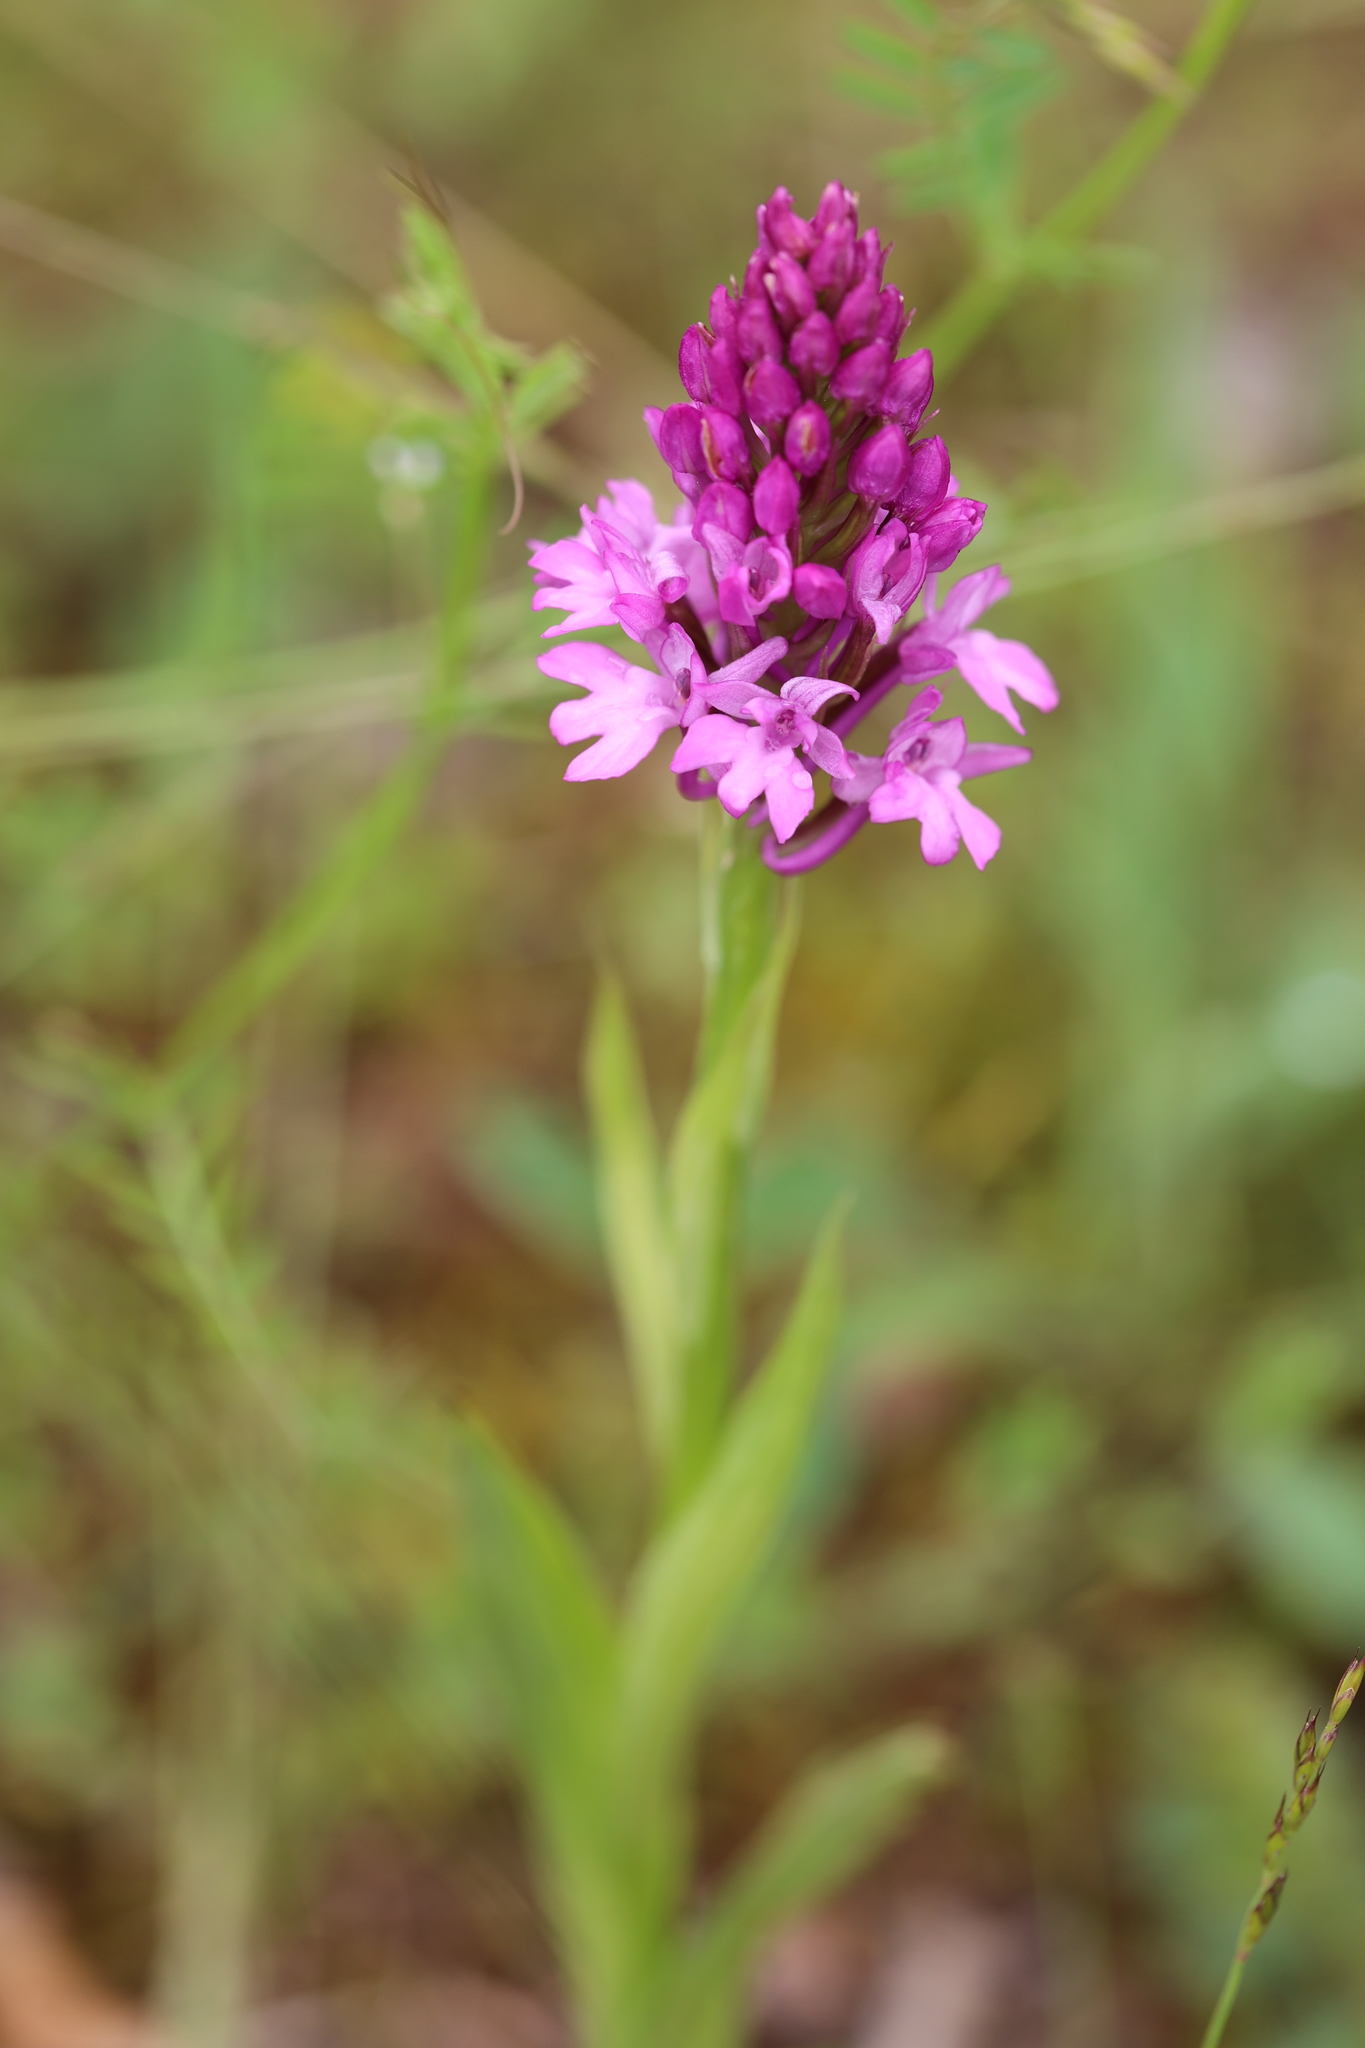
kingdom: Plantae
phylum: Tracheophyta
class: Liliopsida
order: Asparagales
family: Orchidaceae
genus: Anacamptis
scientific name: Anacamptis pyramidalis
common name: Pyramidal orchid
